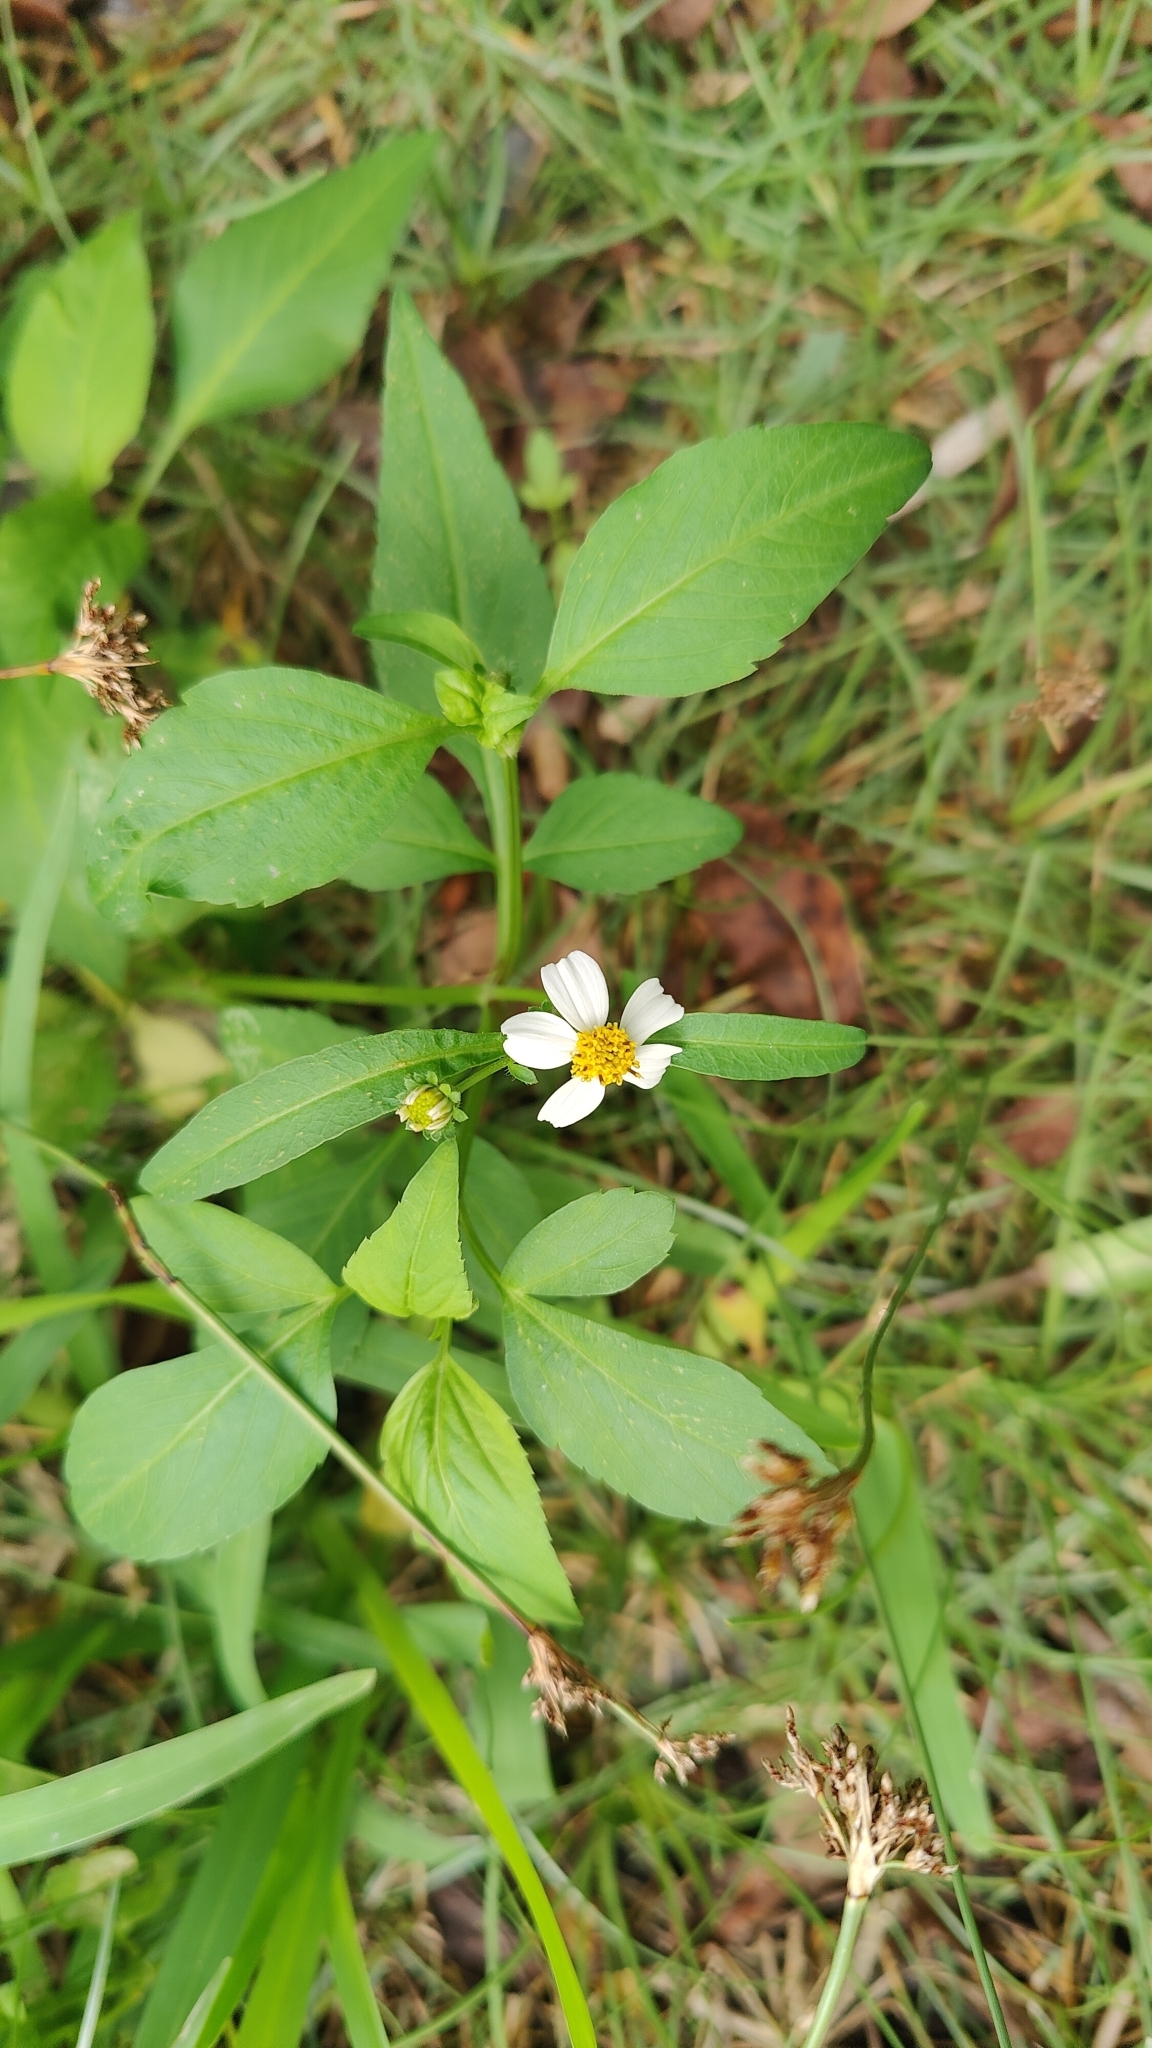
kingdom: Plantae
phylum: Tracheophyta
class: Magnoliopsida
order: Asterales
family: Asteraceae
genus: Bidens
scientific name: Bidens alba
